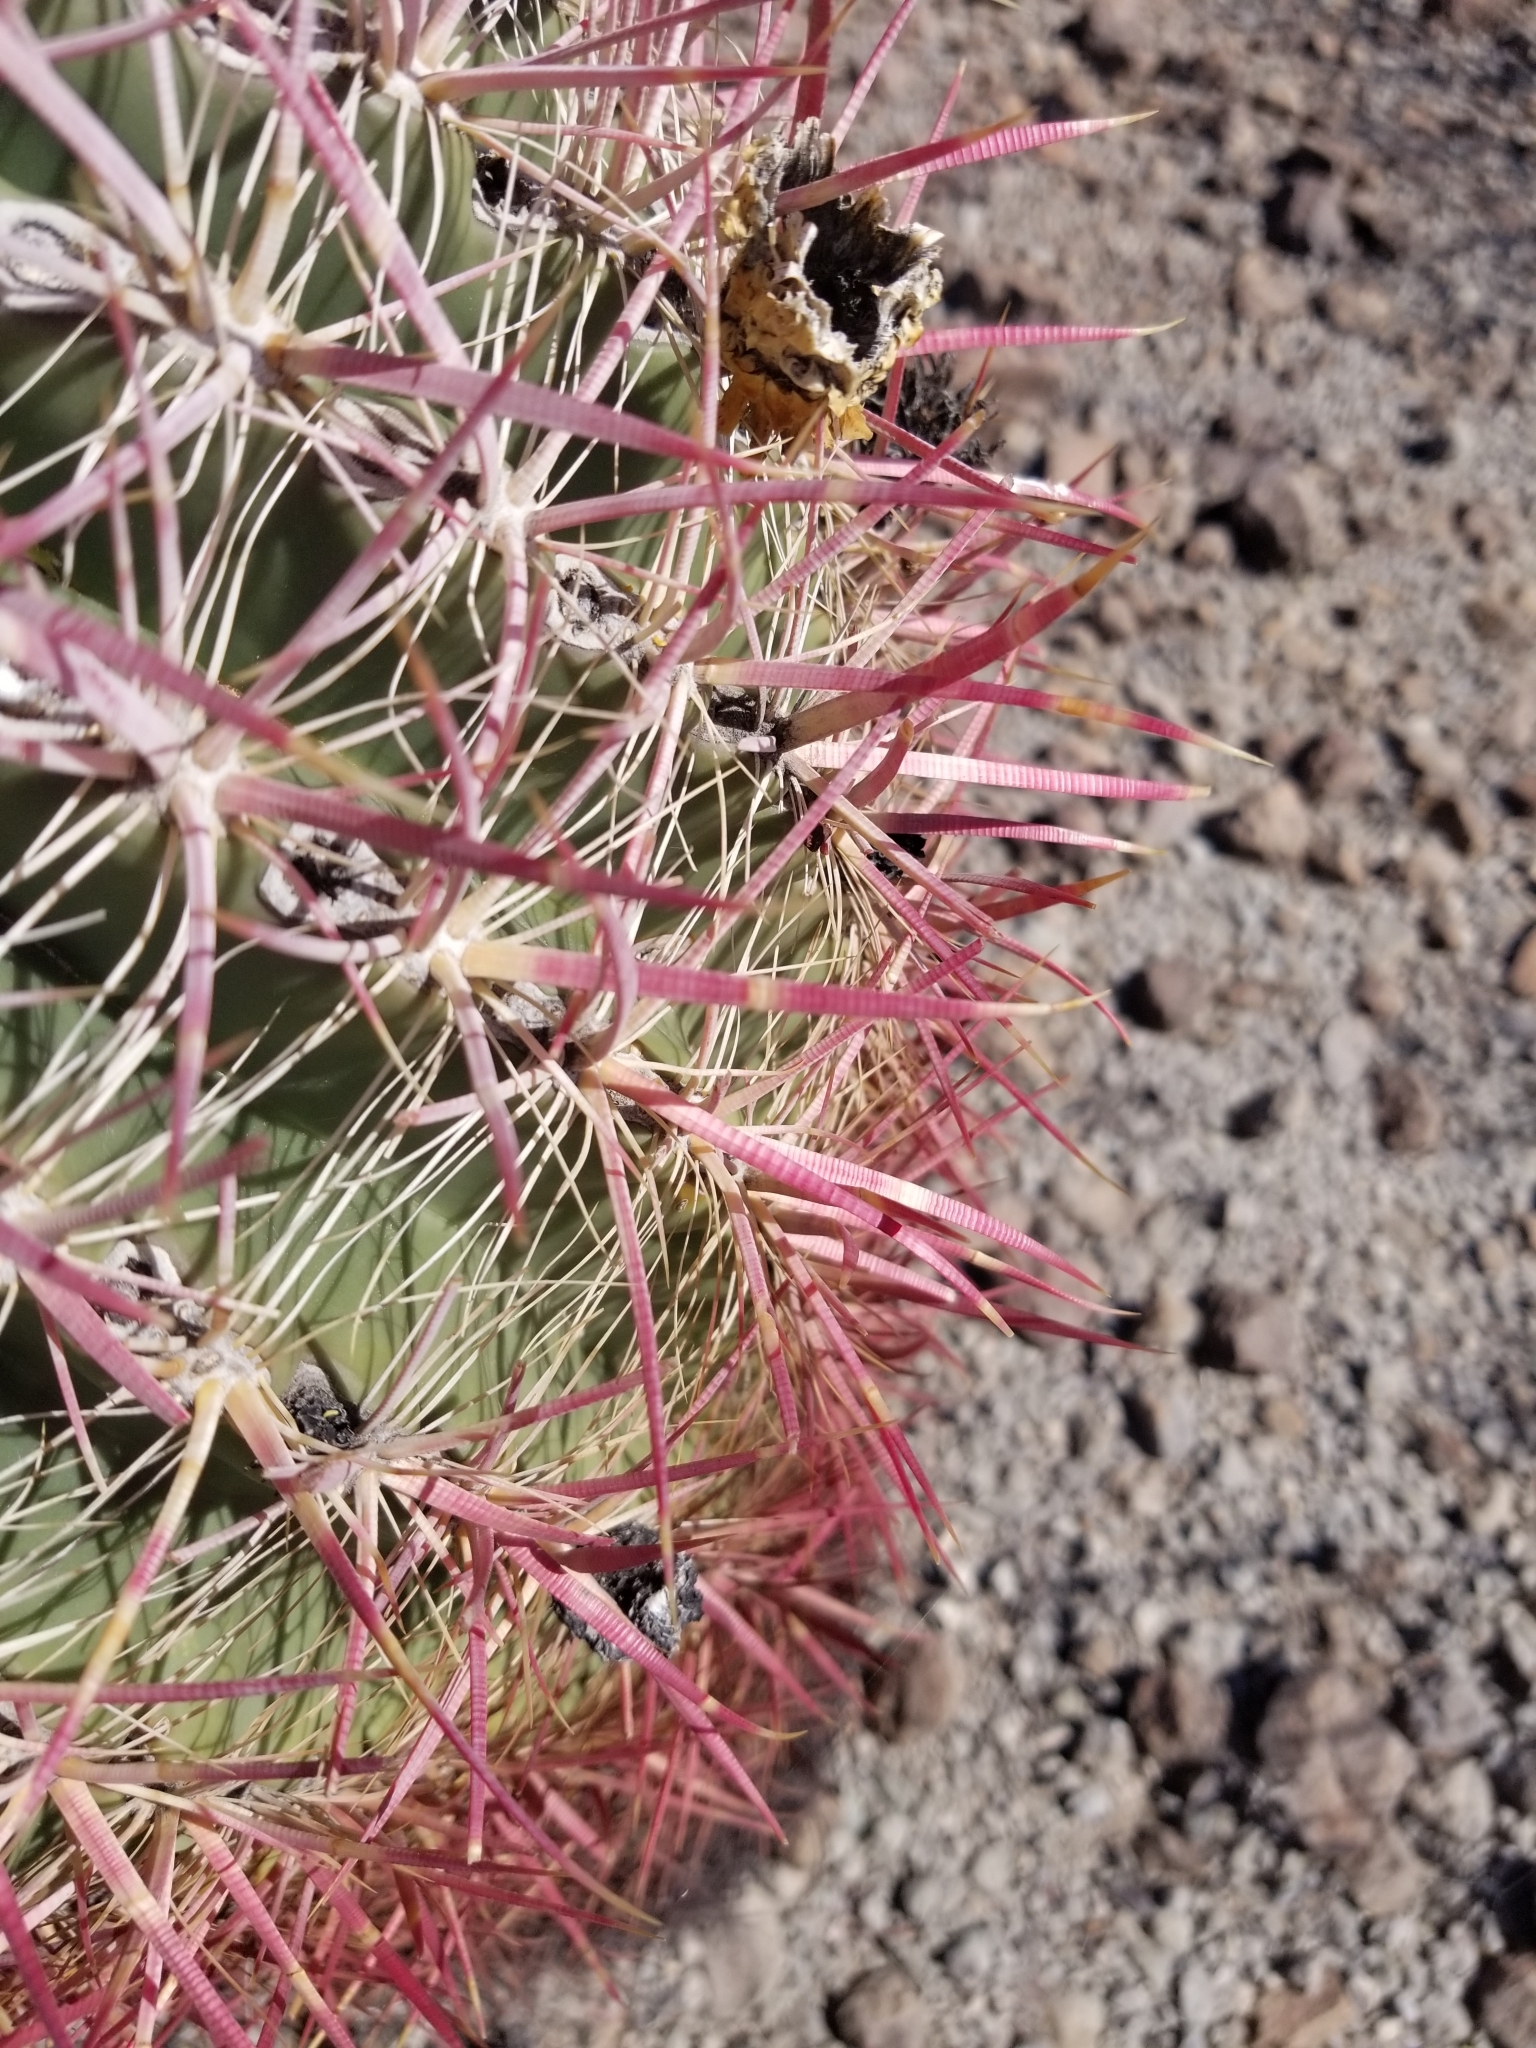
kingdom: Plantae
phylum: Tracheophyta
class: Magnoliopsida
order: Caryophyllales
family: Cactaceae
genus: Ferocactus
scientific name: Ferocactus cylindraceus
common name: California barrel cactus
